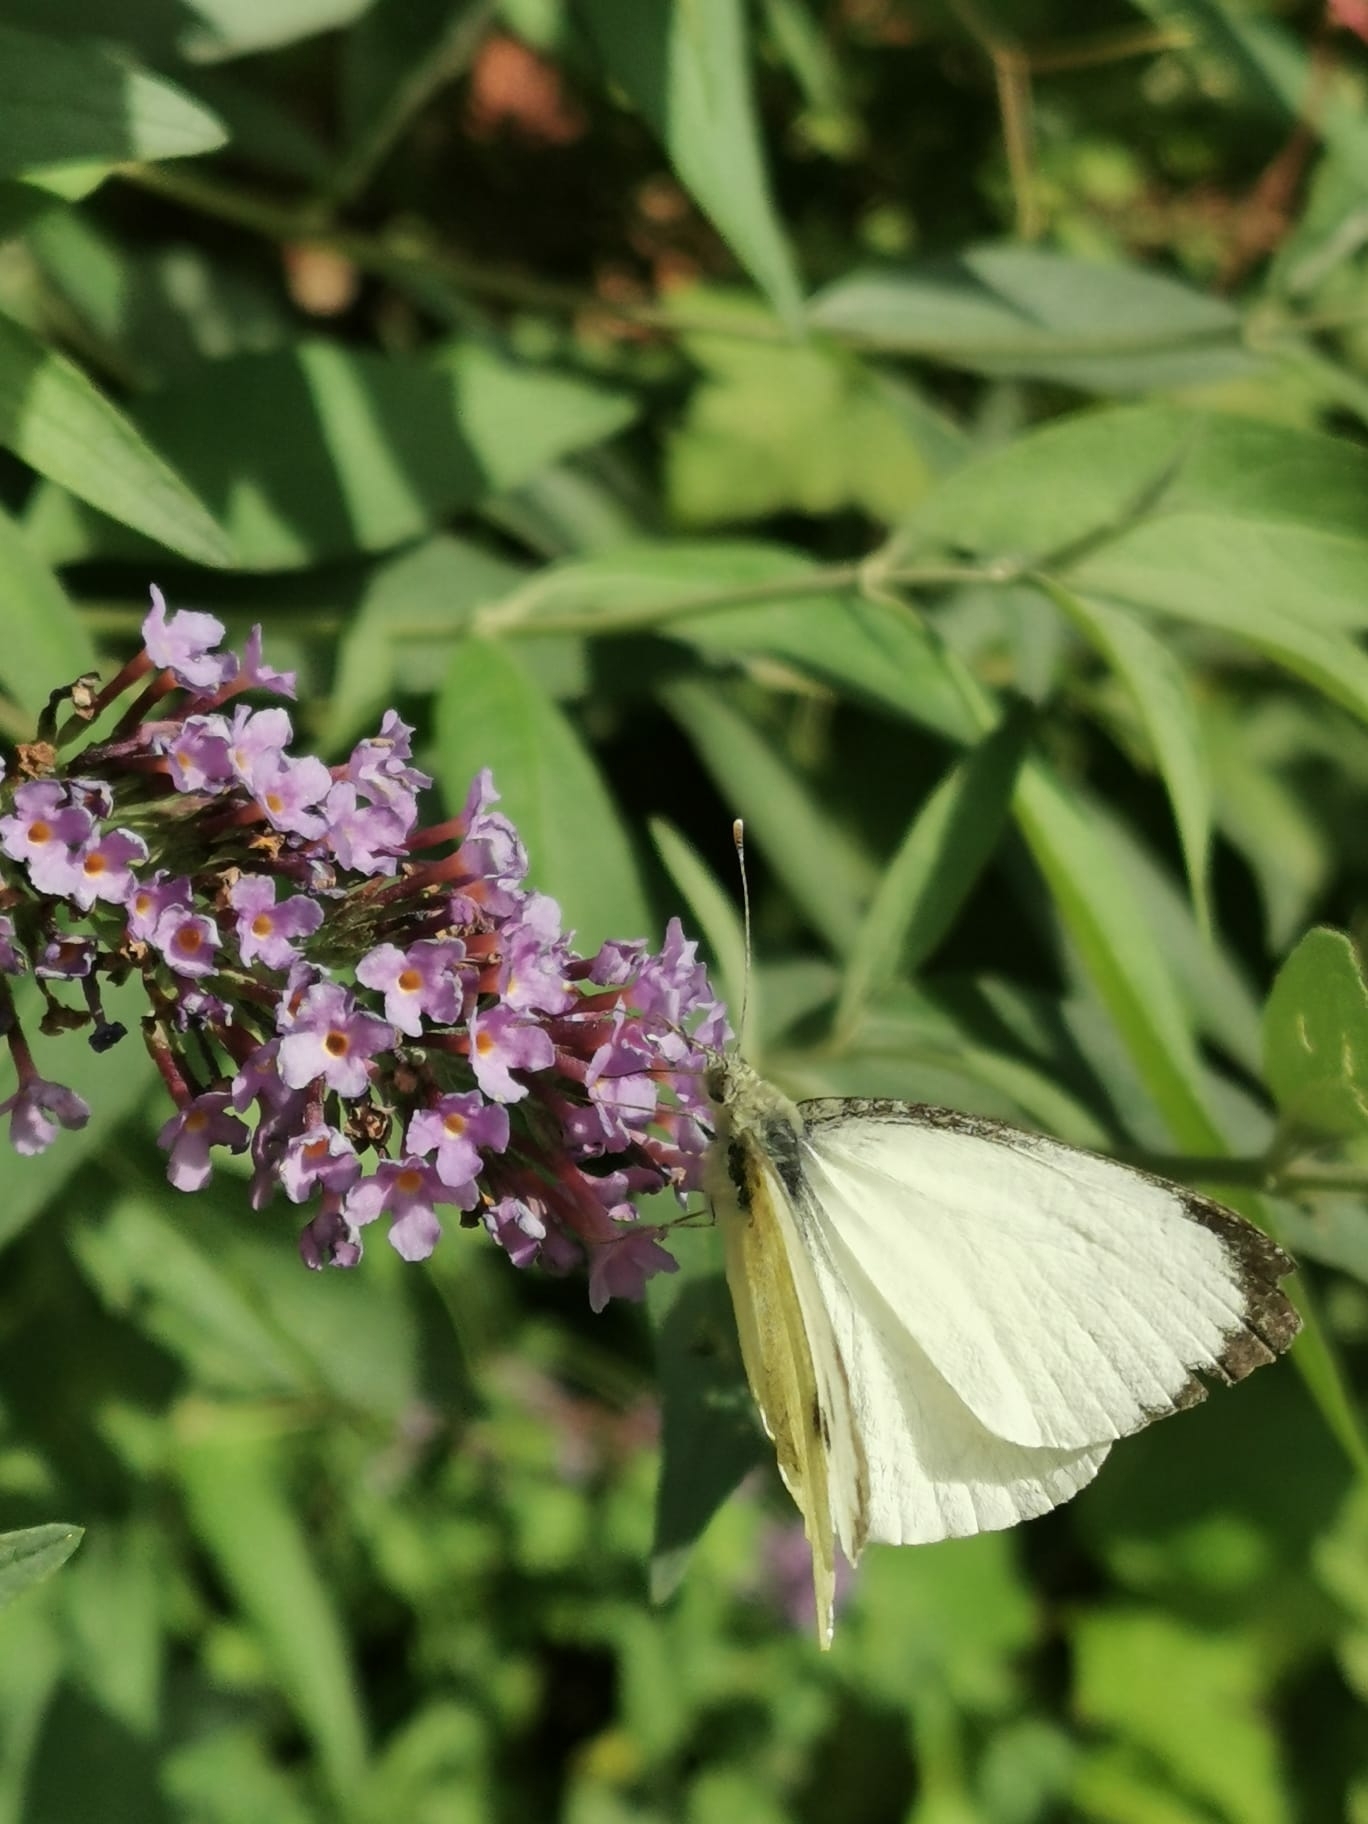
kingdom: Animalia
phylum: Arthropoda
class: Insecta
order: Lepidoptera
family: Pieridae
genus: Pieris
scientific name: Pieris brassicae
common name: Large white
